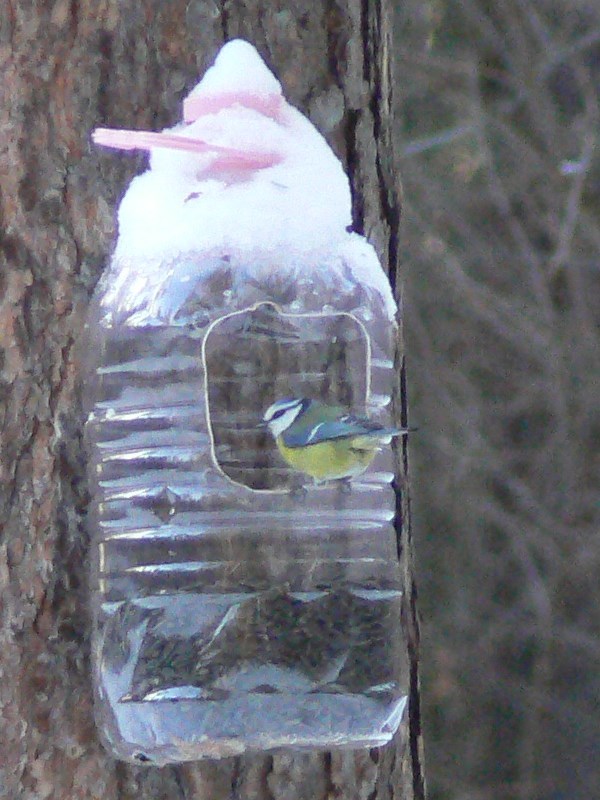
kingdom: Animalia
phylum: Chordata
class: Aves
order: Passeriformes
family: Paridae
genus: Cyanistes
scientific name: Cyanistes caeruleus
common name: Eurasian blue tit
